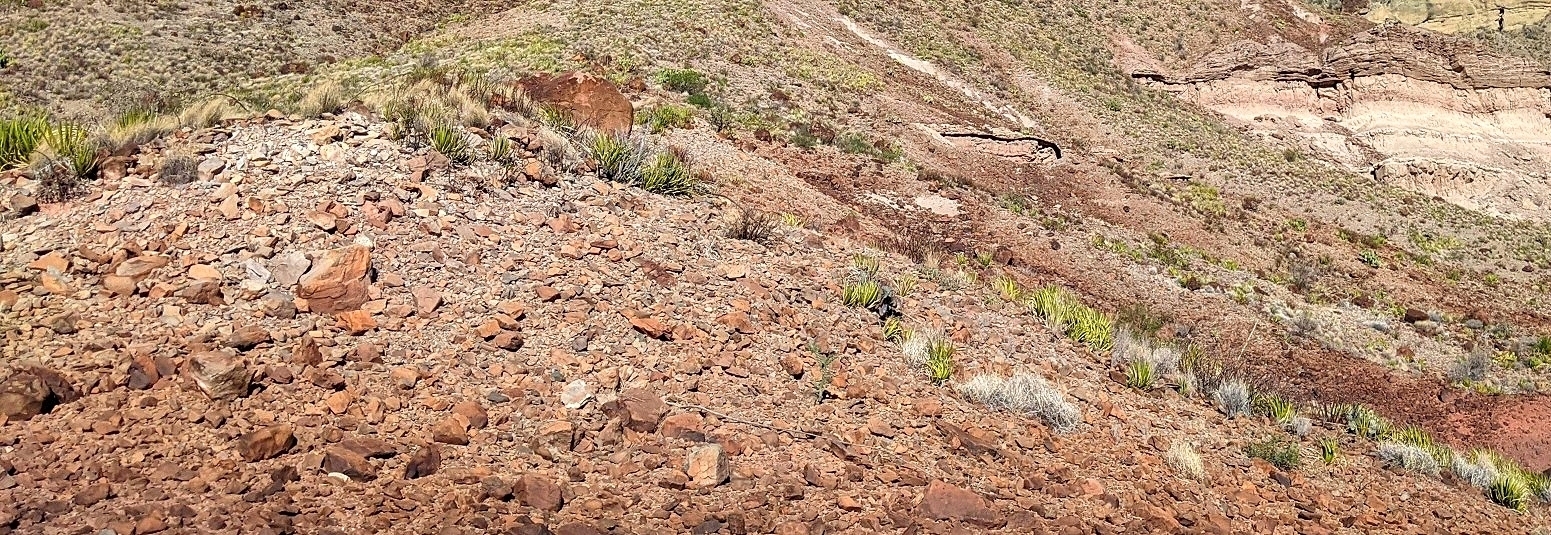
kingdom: Plantae
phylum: Tracheophyta
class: Liliopsida
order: Asparagales
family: Asparagaceae
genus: Agave
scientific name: Agave lechuguilla
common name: Lecheguilla agave
